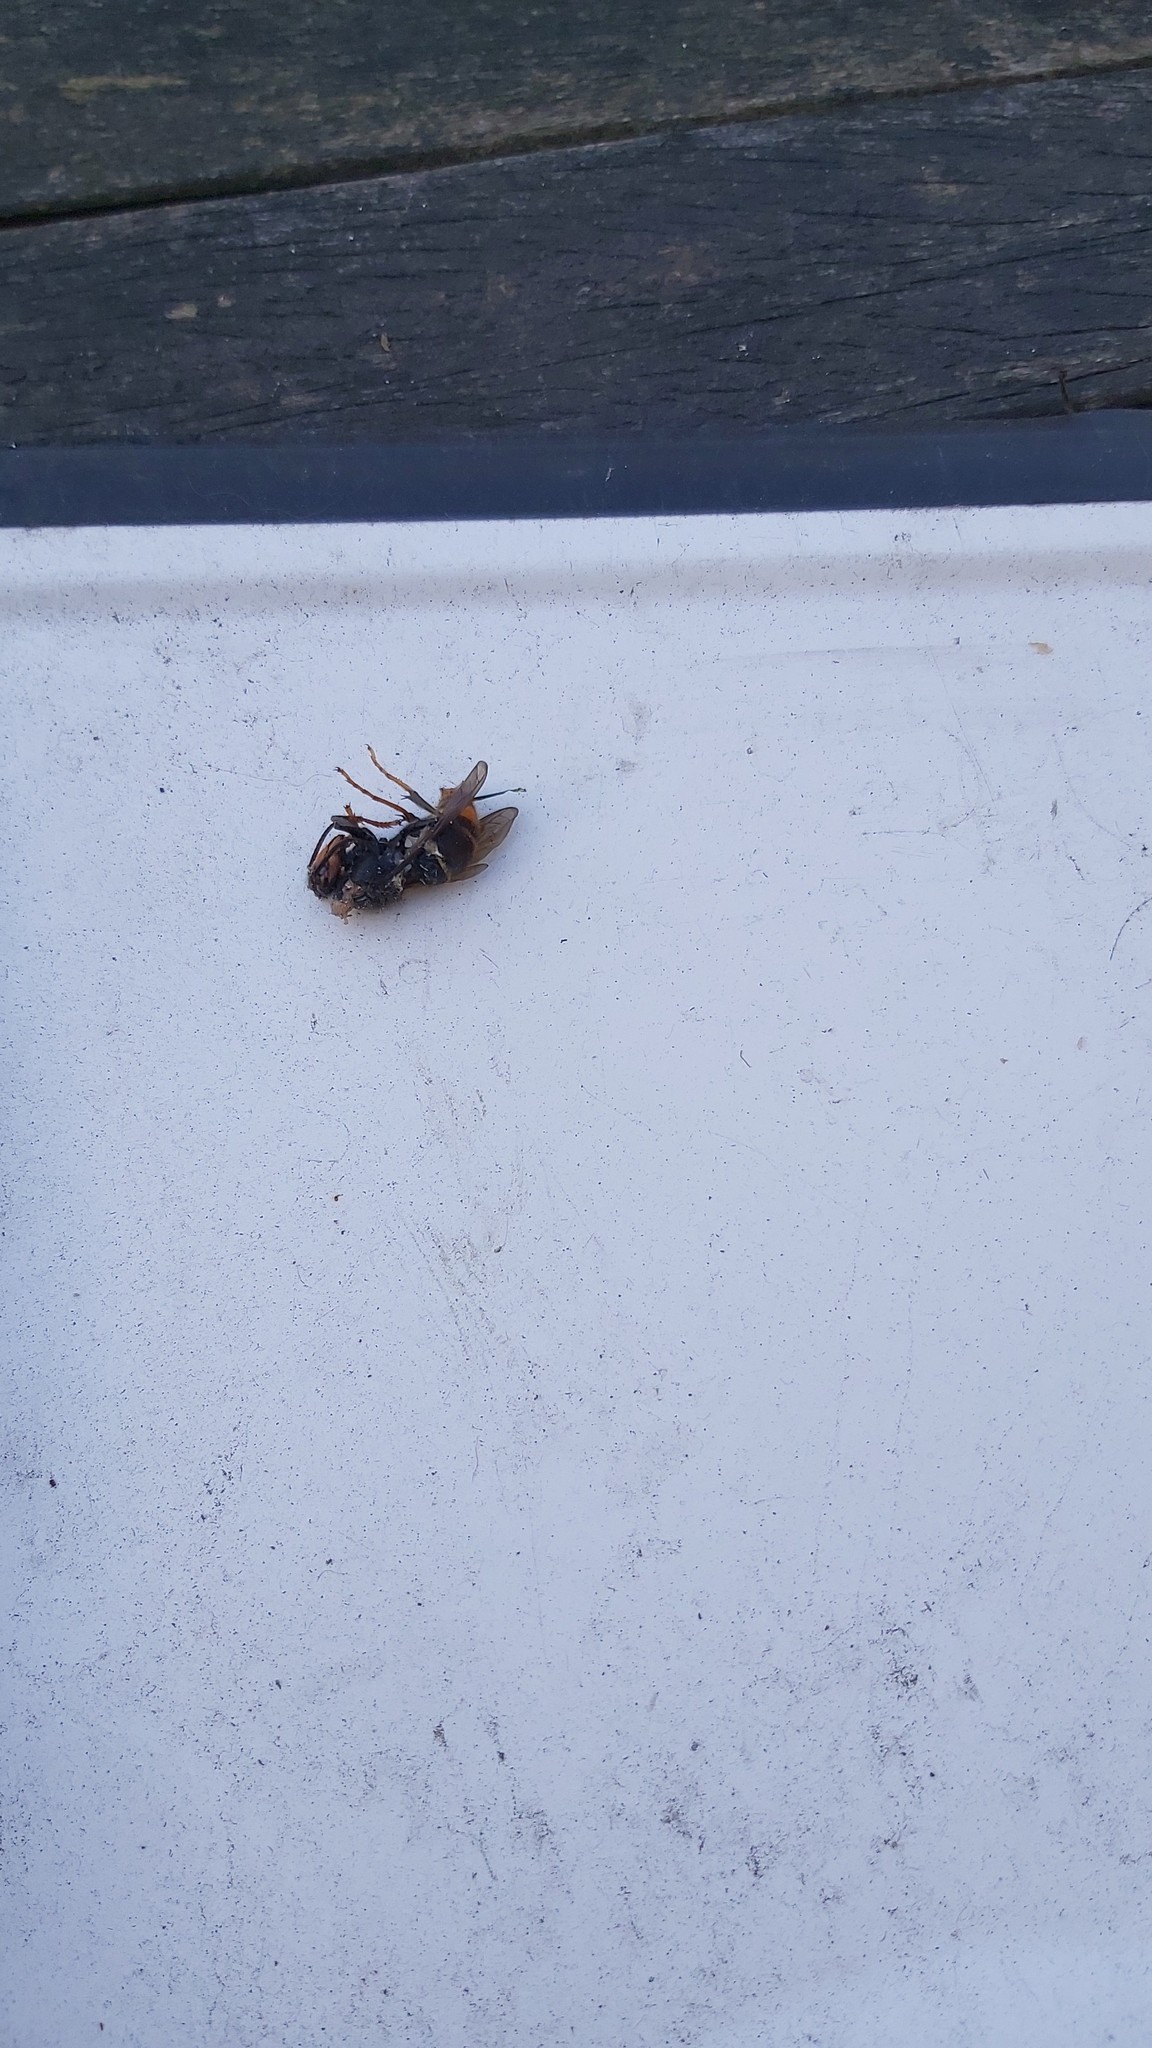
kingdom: Animalia
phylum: Arthropoda
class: Insecta
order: Hymenoptera
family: Vespidae
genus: Vespa
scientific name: Vespa velutina
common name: Asian hornet
